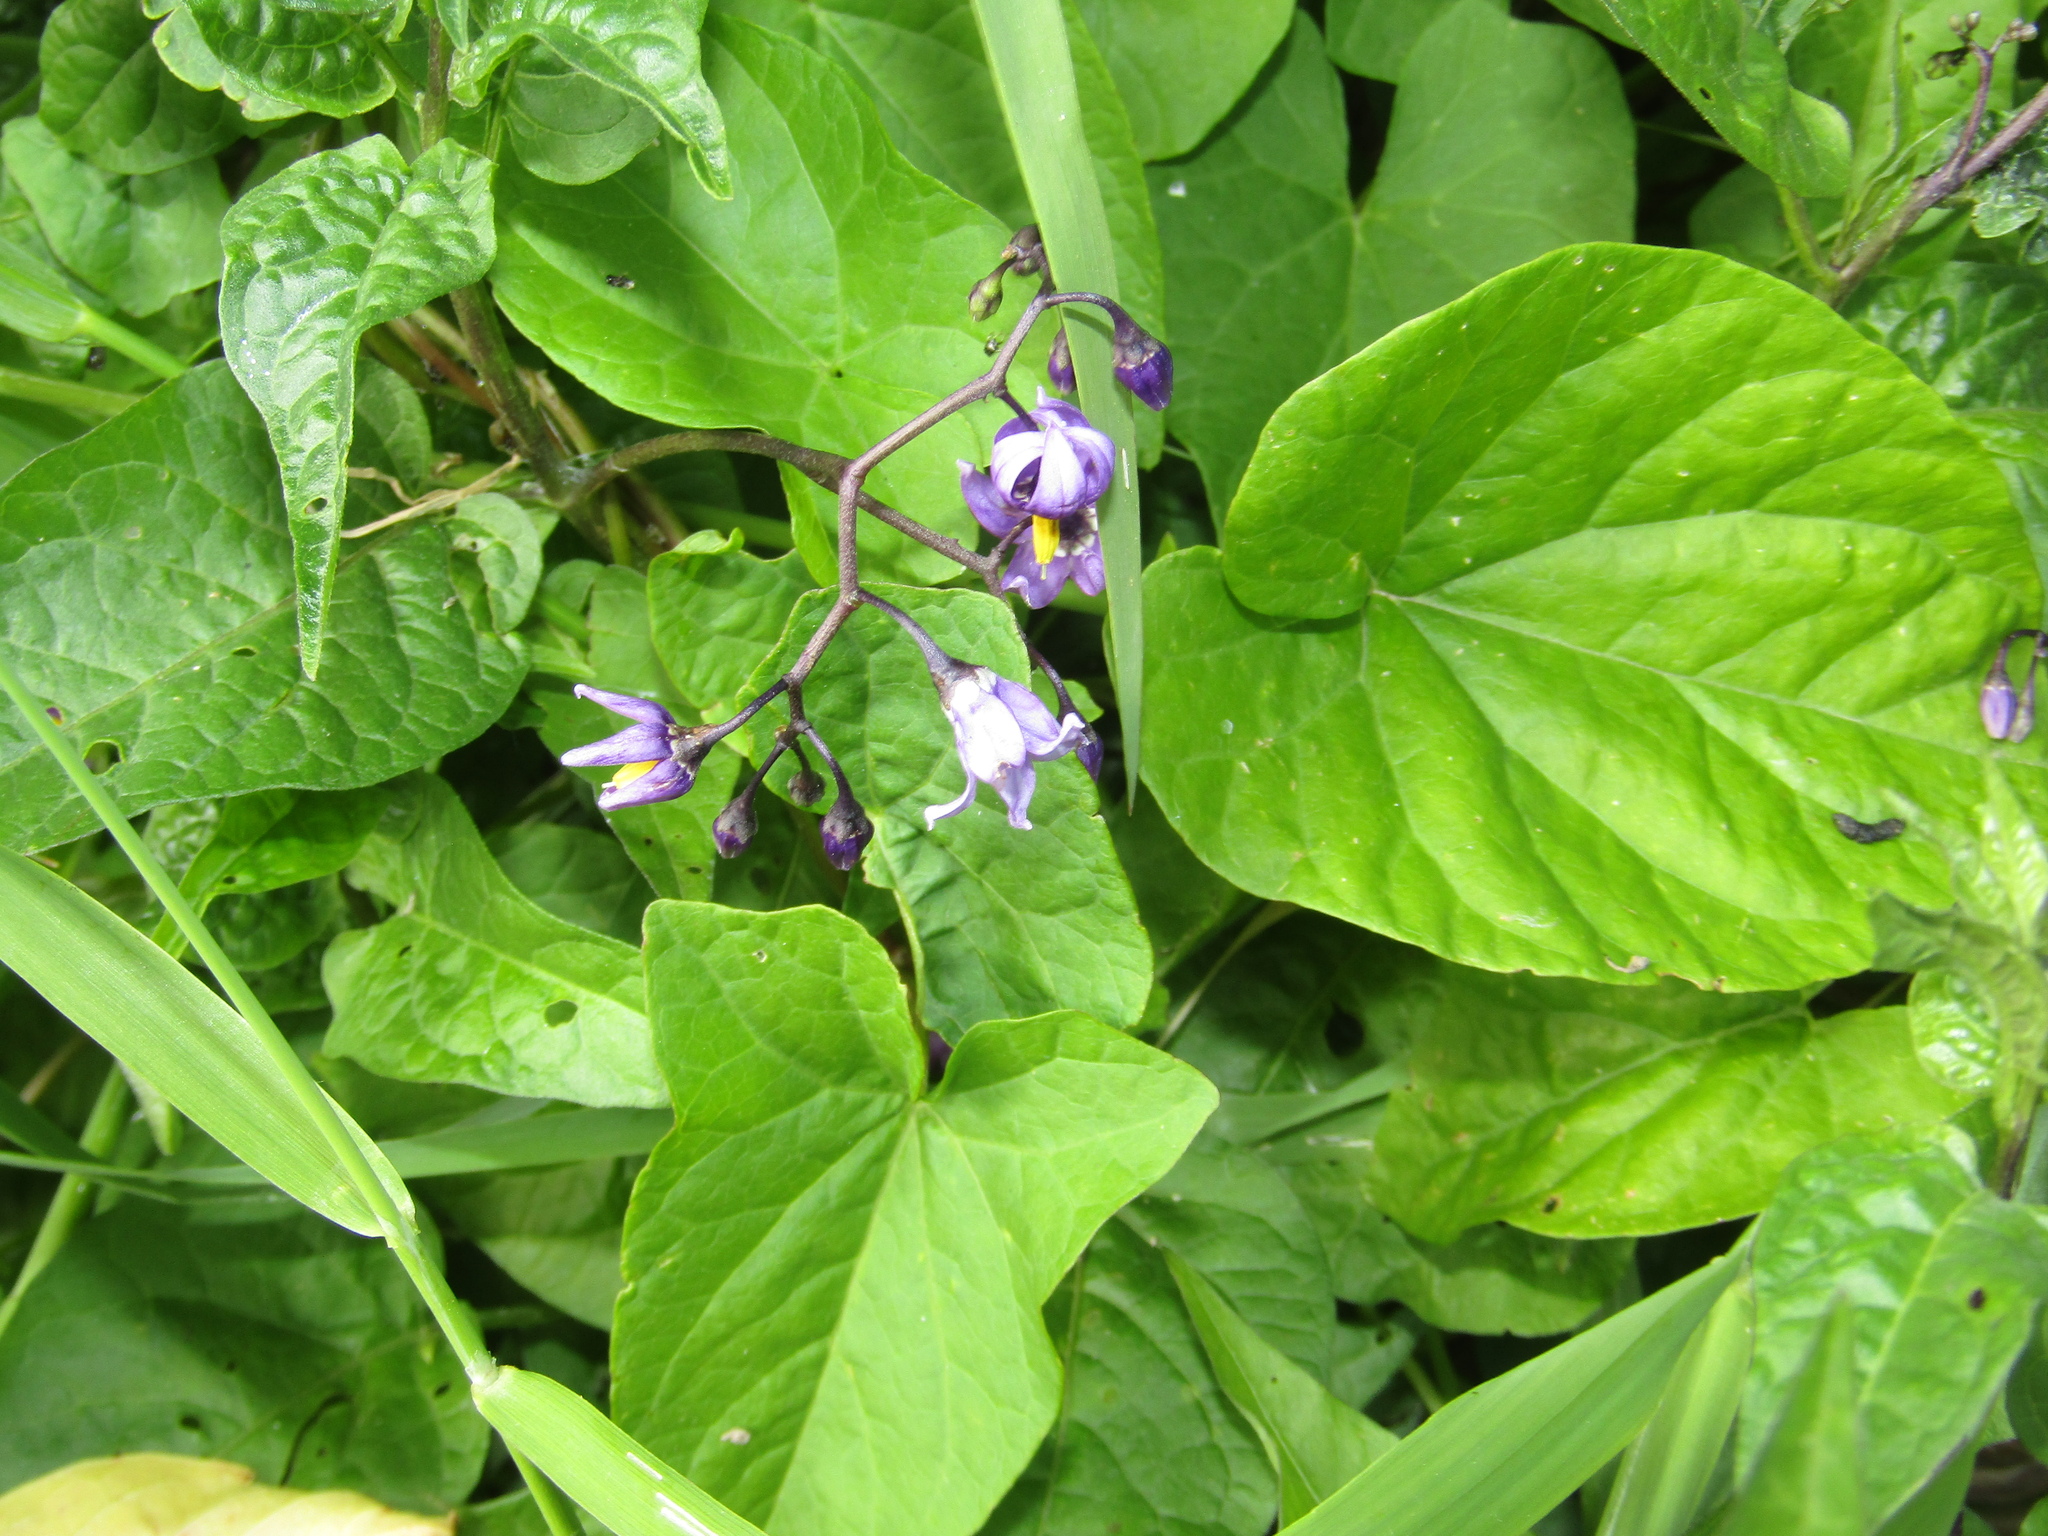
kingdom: Plantae
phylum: Tracheophyta
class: Magnoliopsida
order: Solanales
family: Solanaceae
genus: Solanum
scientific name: Solanum dulcamara
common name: Climbing nightshade
